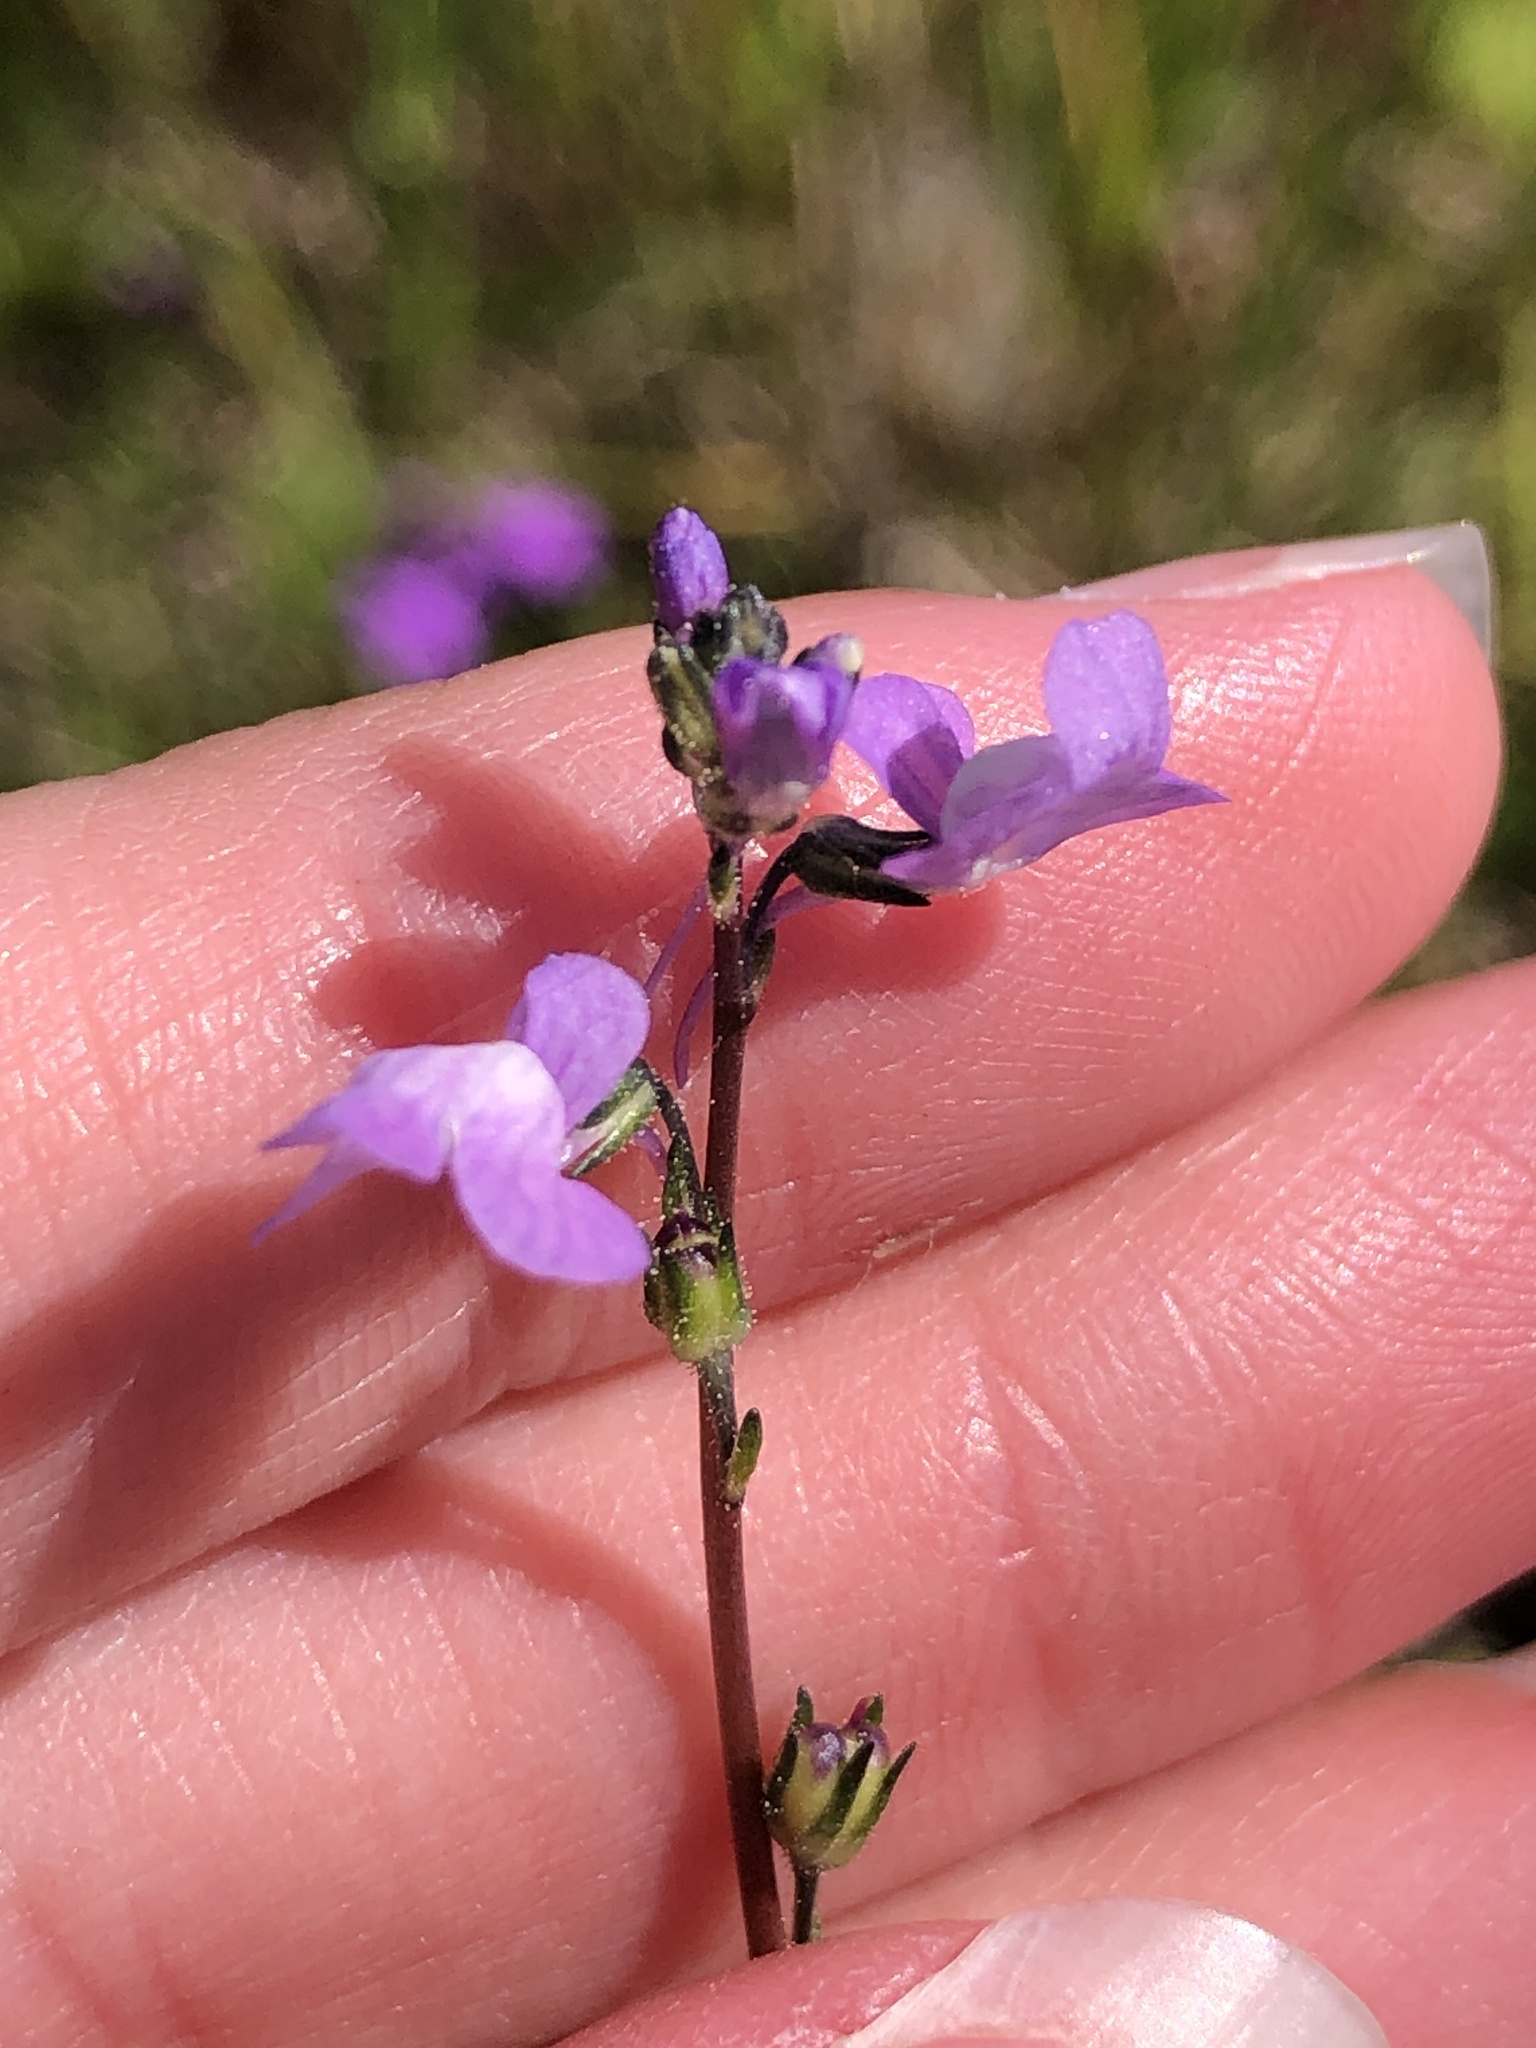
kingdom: Plantae
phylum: Tracheophyta
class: Magnoliopsida
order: Lamiales
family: Plantaginaceae
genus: Nuttallanthus
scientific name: Nuttallanthus canadensis
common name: Blue toadflax
